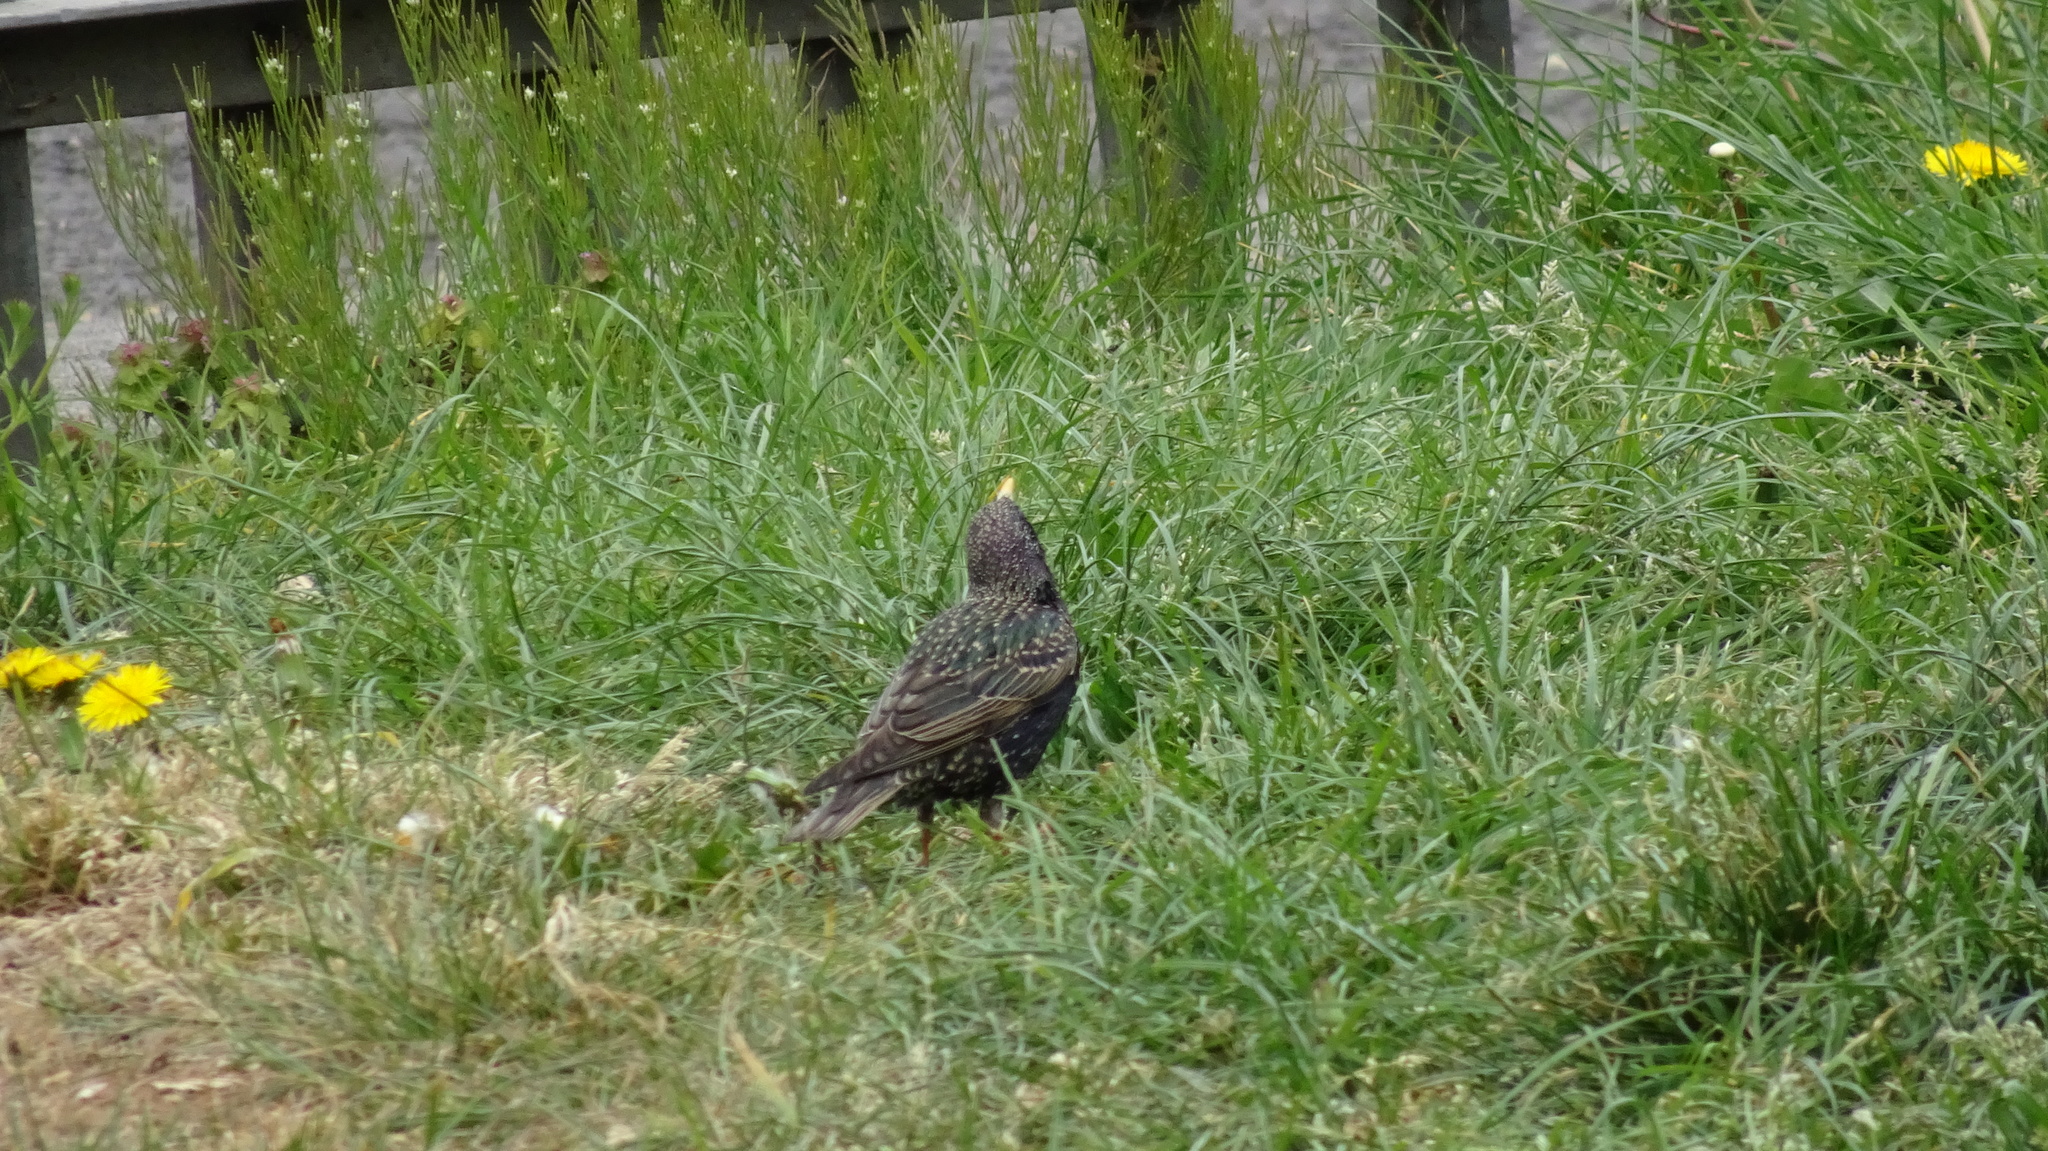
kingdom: Animalia
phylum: Chordata
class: Aves
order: Passeriformes
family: Sturnidae
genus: Sturnus
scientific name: Sturnus vulgaris
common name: Common starling
